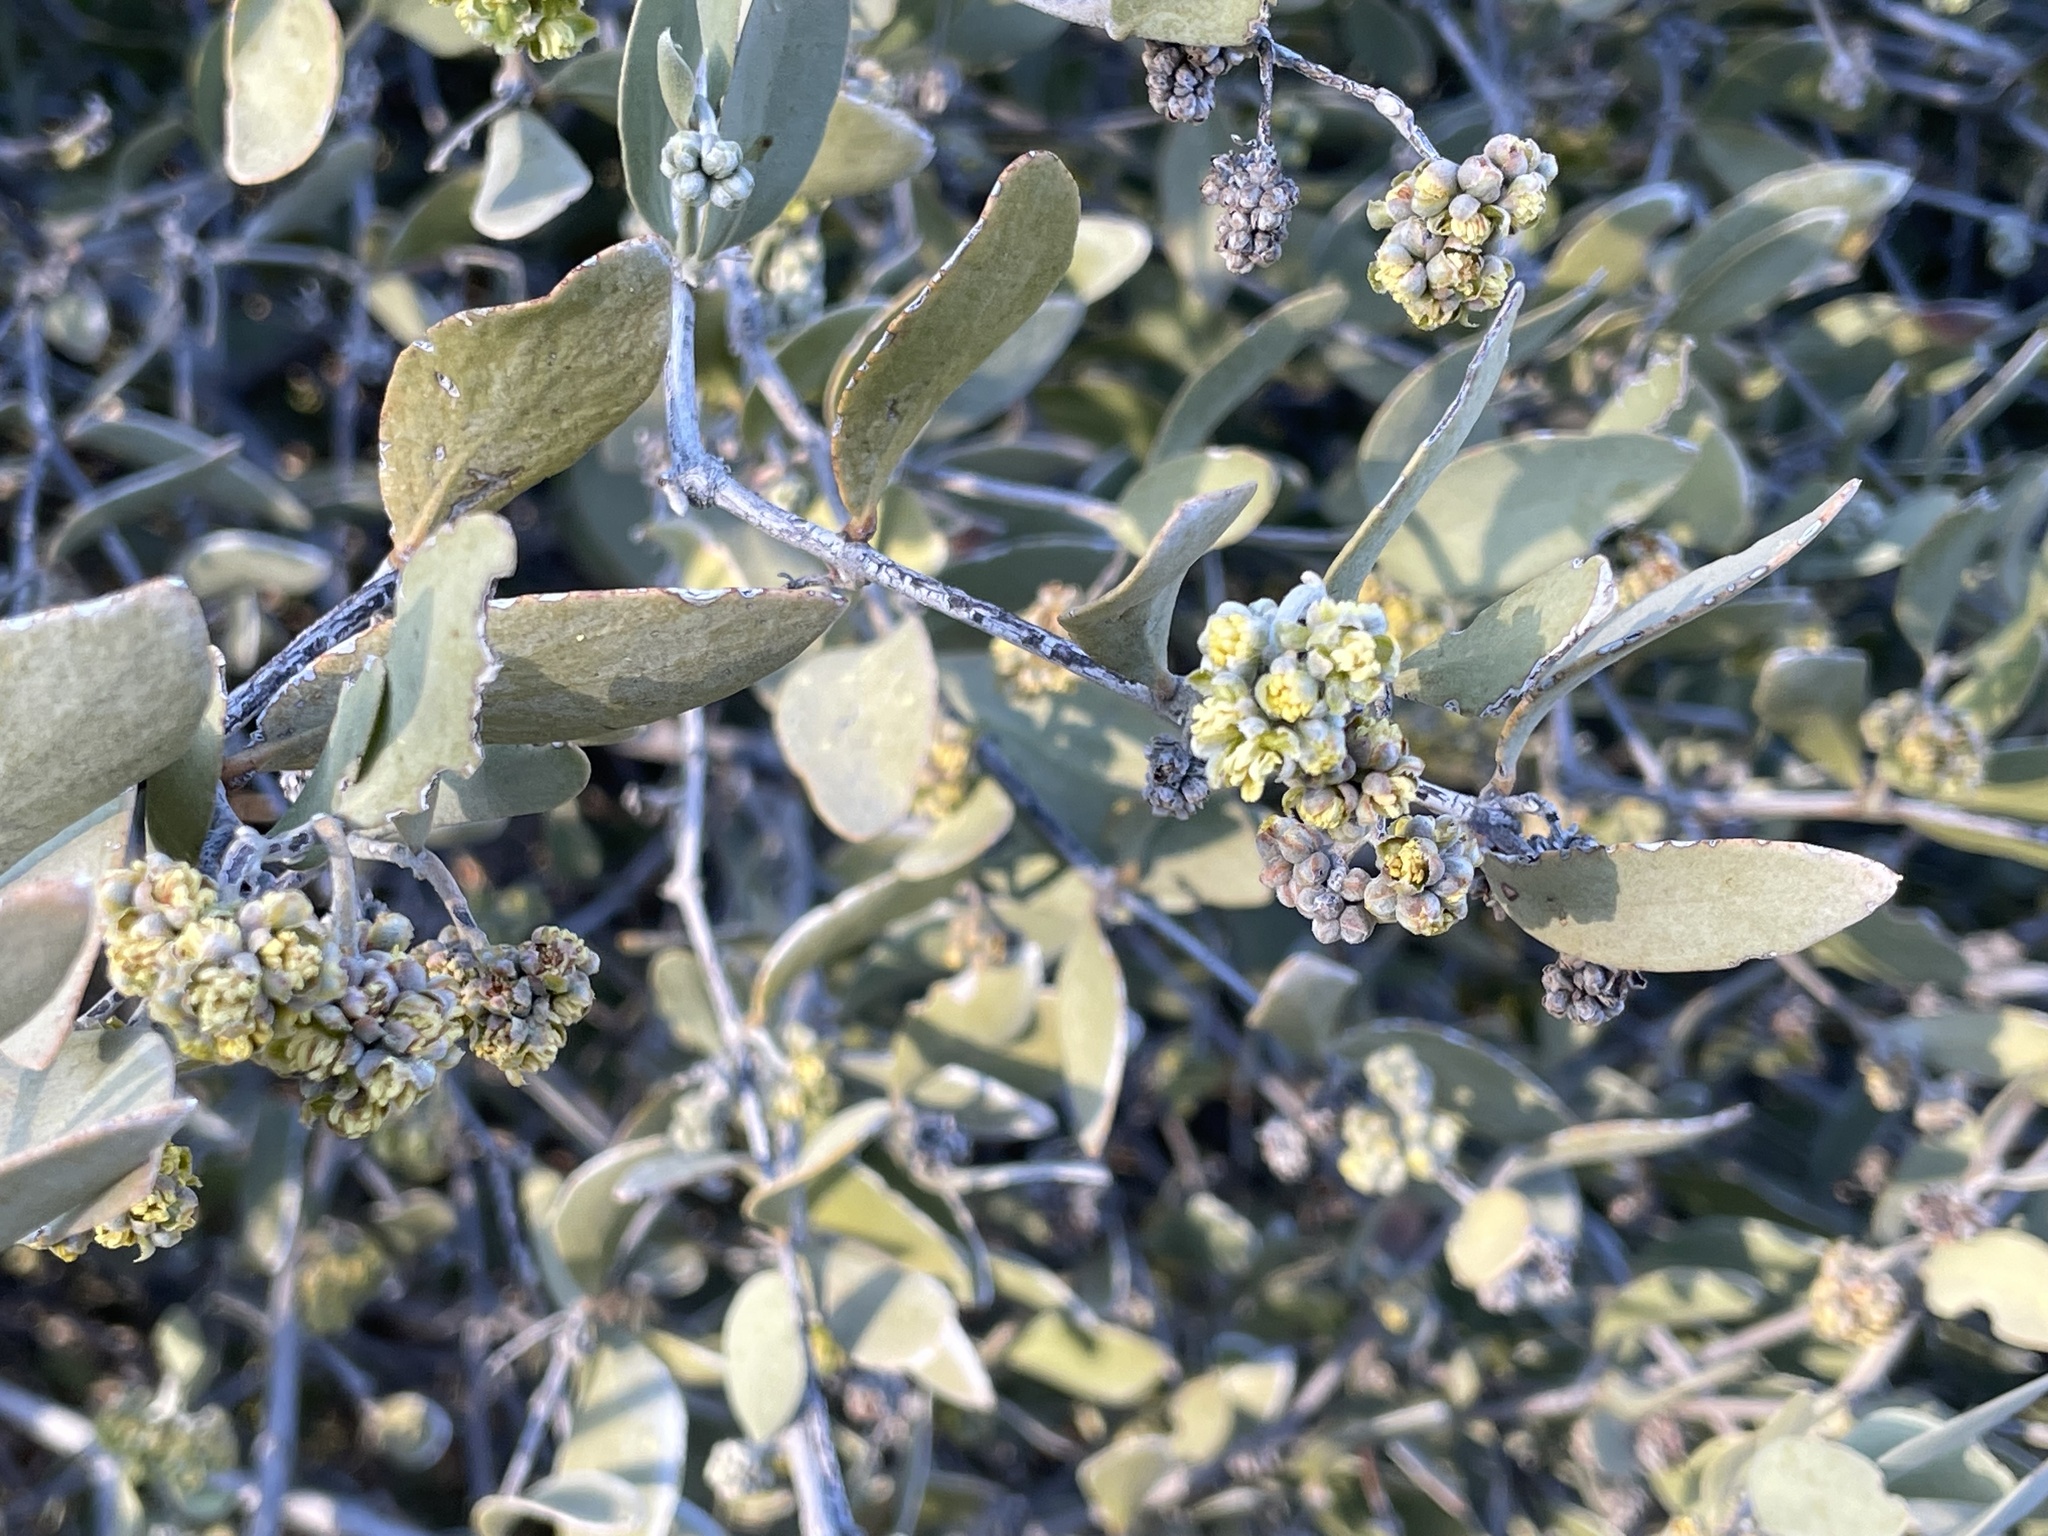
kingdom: Plantae
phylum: Tracheophyta
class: Magnoliopsida
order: Caryophyllales
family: Simmondsiaceae
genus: Simmondsia
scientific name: Simmondsia chinensis
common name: Jojoba
